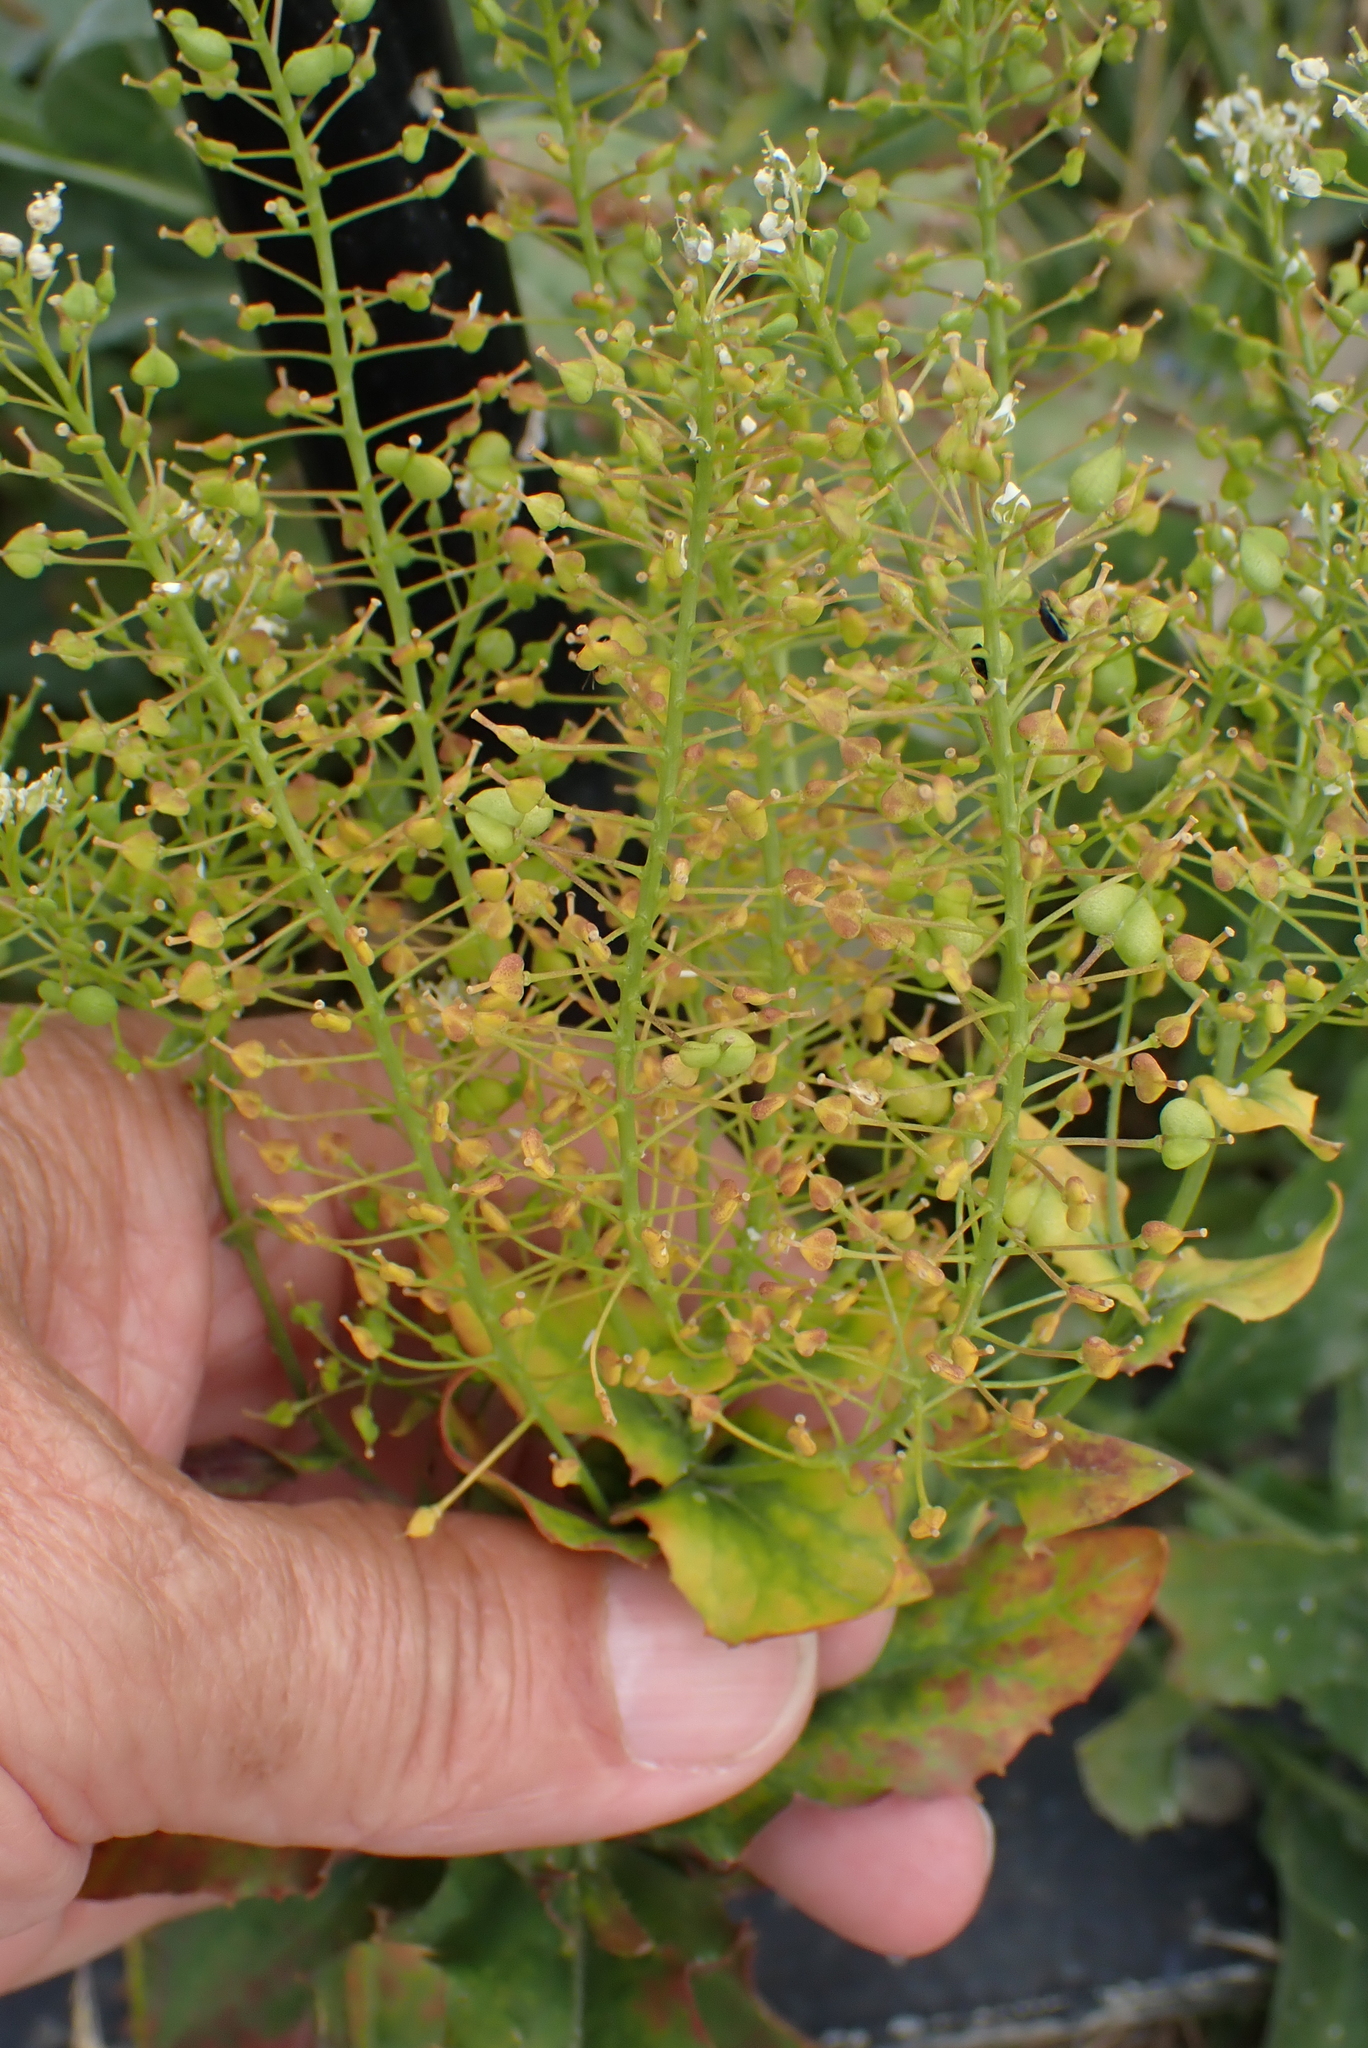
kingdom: Plantae
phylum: Tracheophyta
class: Magnoliopsida
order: Brassicales
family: Brassicaceae
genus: Lepidium
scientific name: Lepidium draba
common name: Hoary cress
